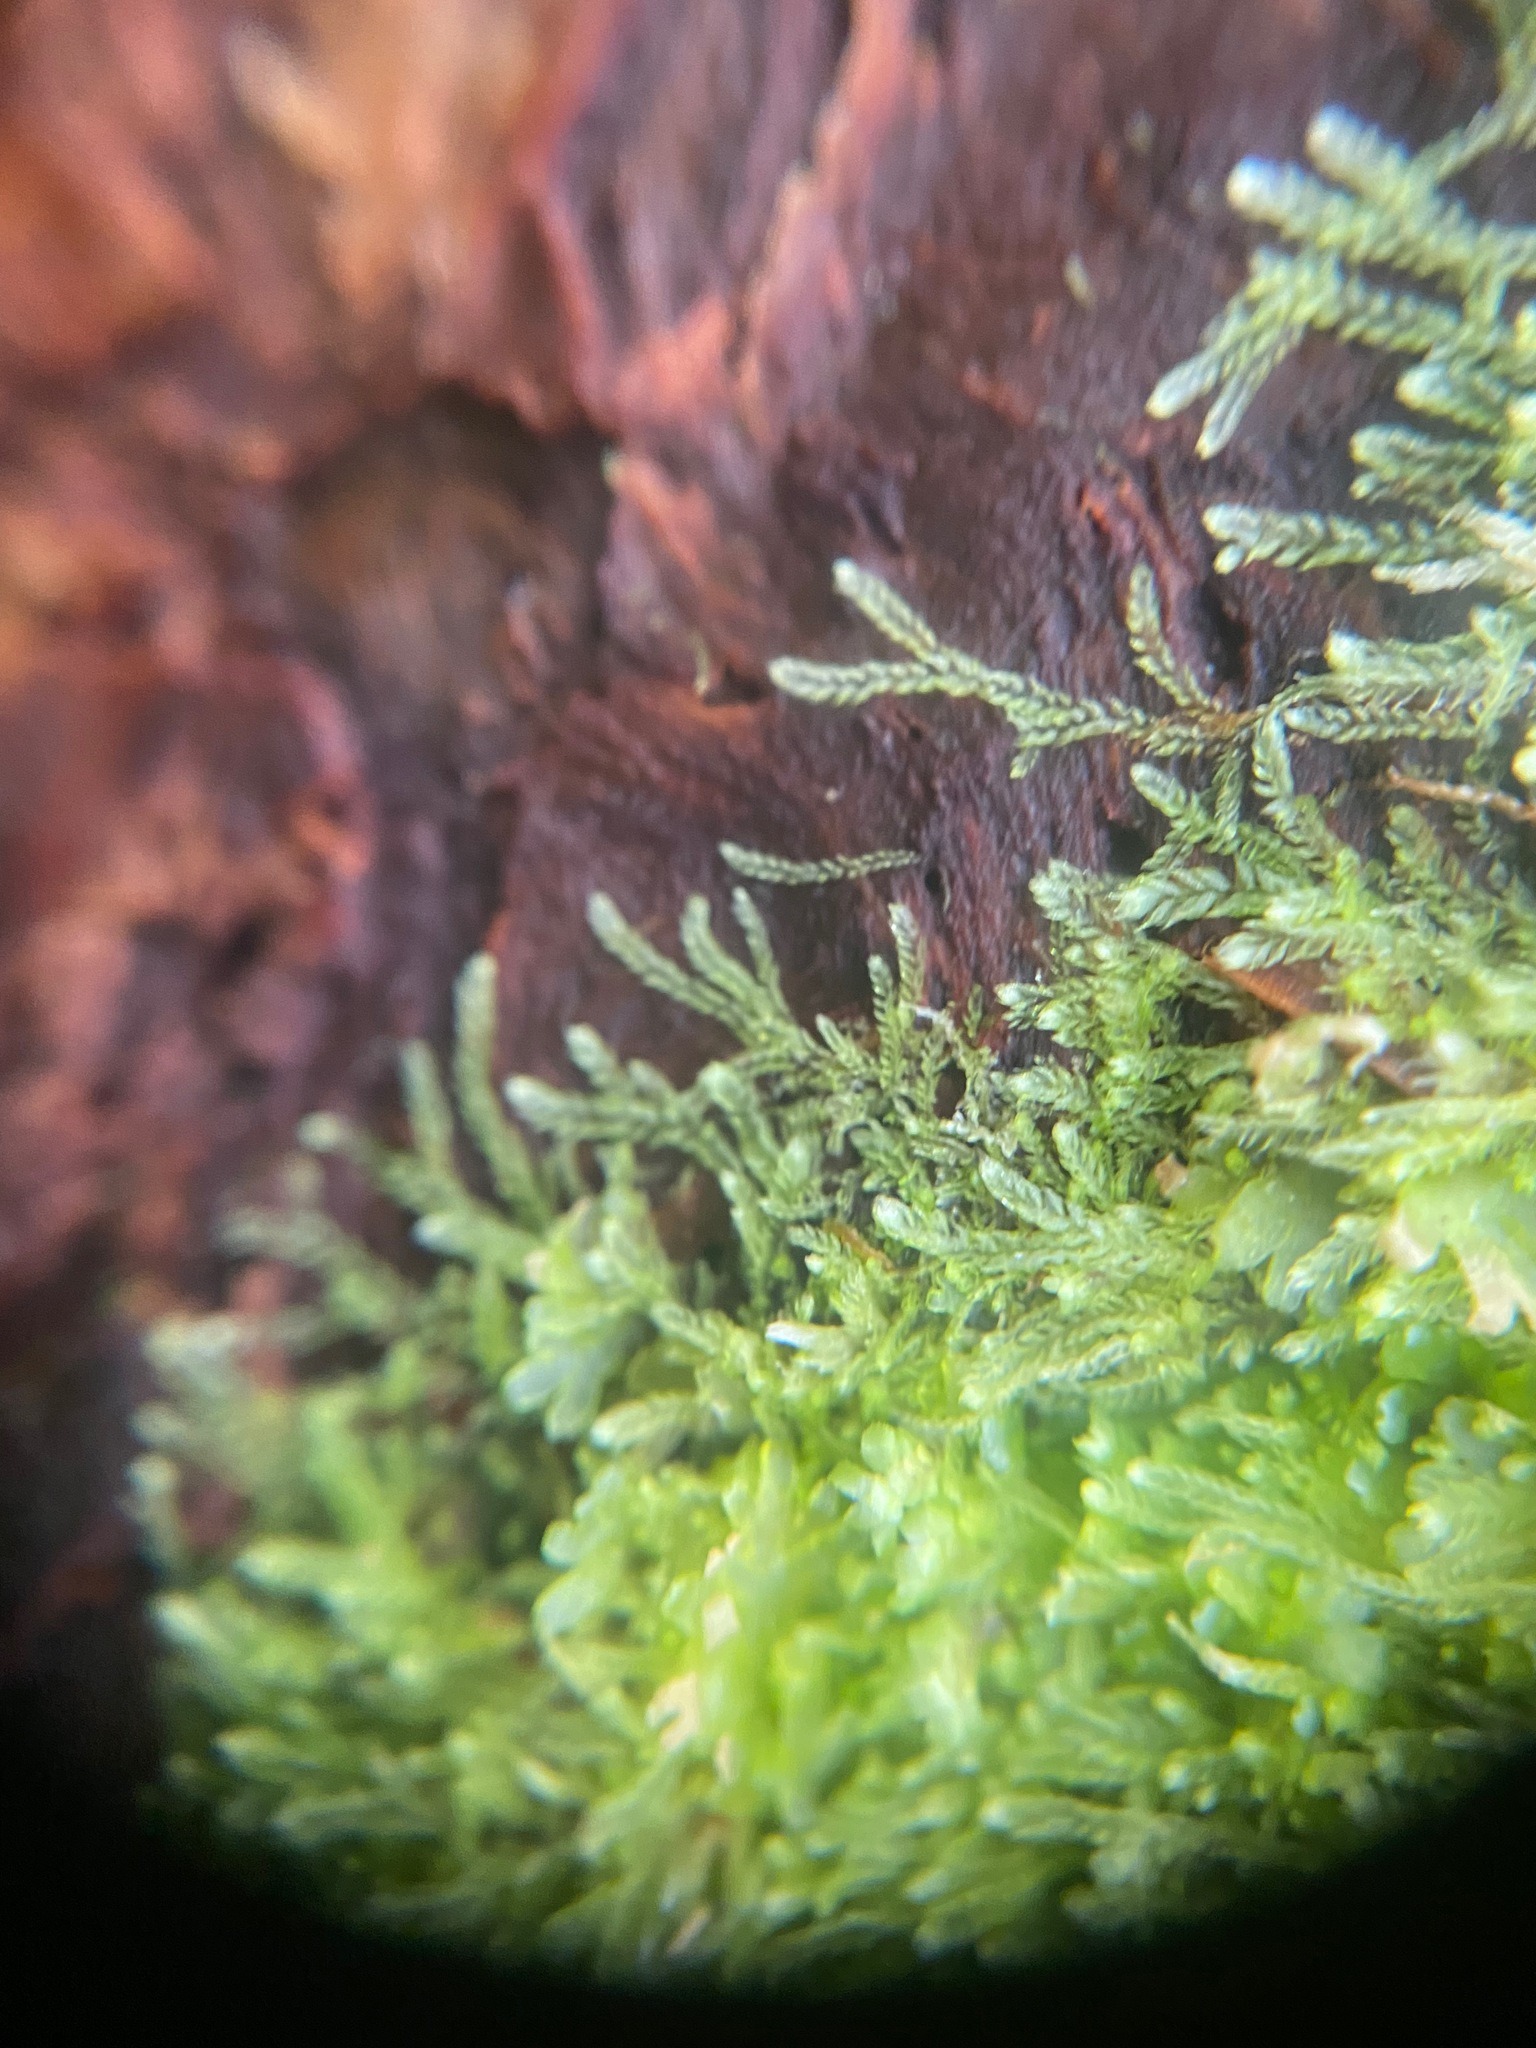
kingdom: Plantae
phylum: Marchantiophyta
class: Jungermanniopsida
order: Jungermanniales
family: Lepidoziaceae
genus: Lepidozia
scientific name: Lepidozia reptans
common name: Creeping fingerwort
